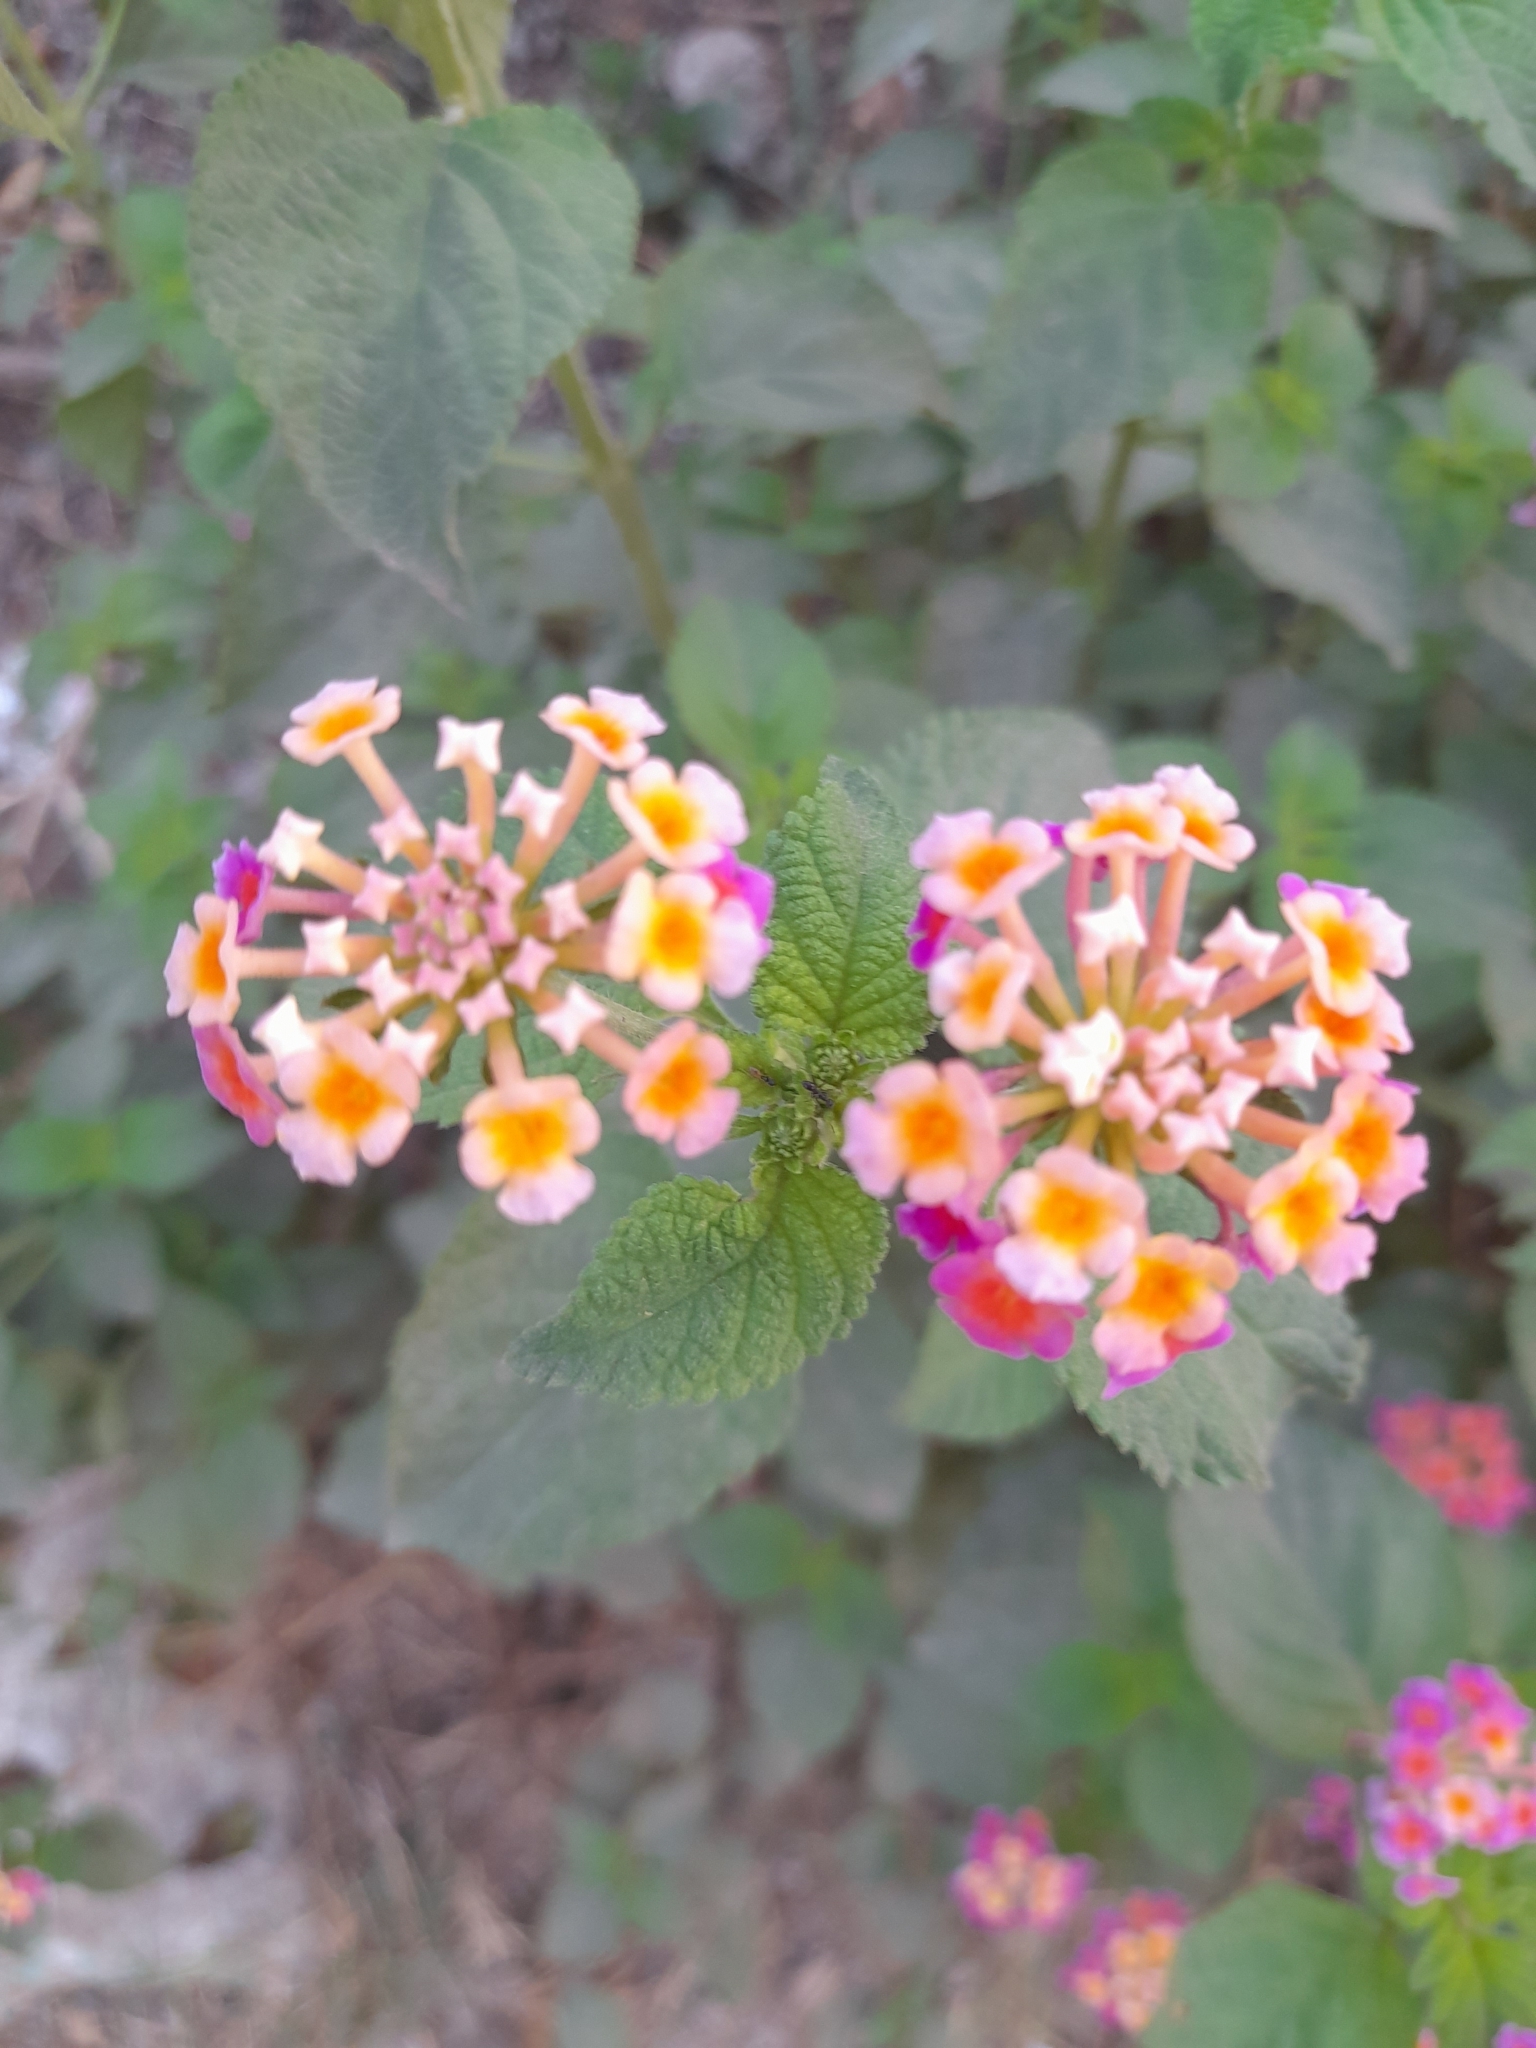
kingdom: Plantae
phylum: Tracheophyta
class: Magnoliopsida
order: Lamiales
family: Verbenaceae
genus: Lantana
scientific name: Lantana camara
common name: Lantana
